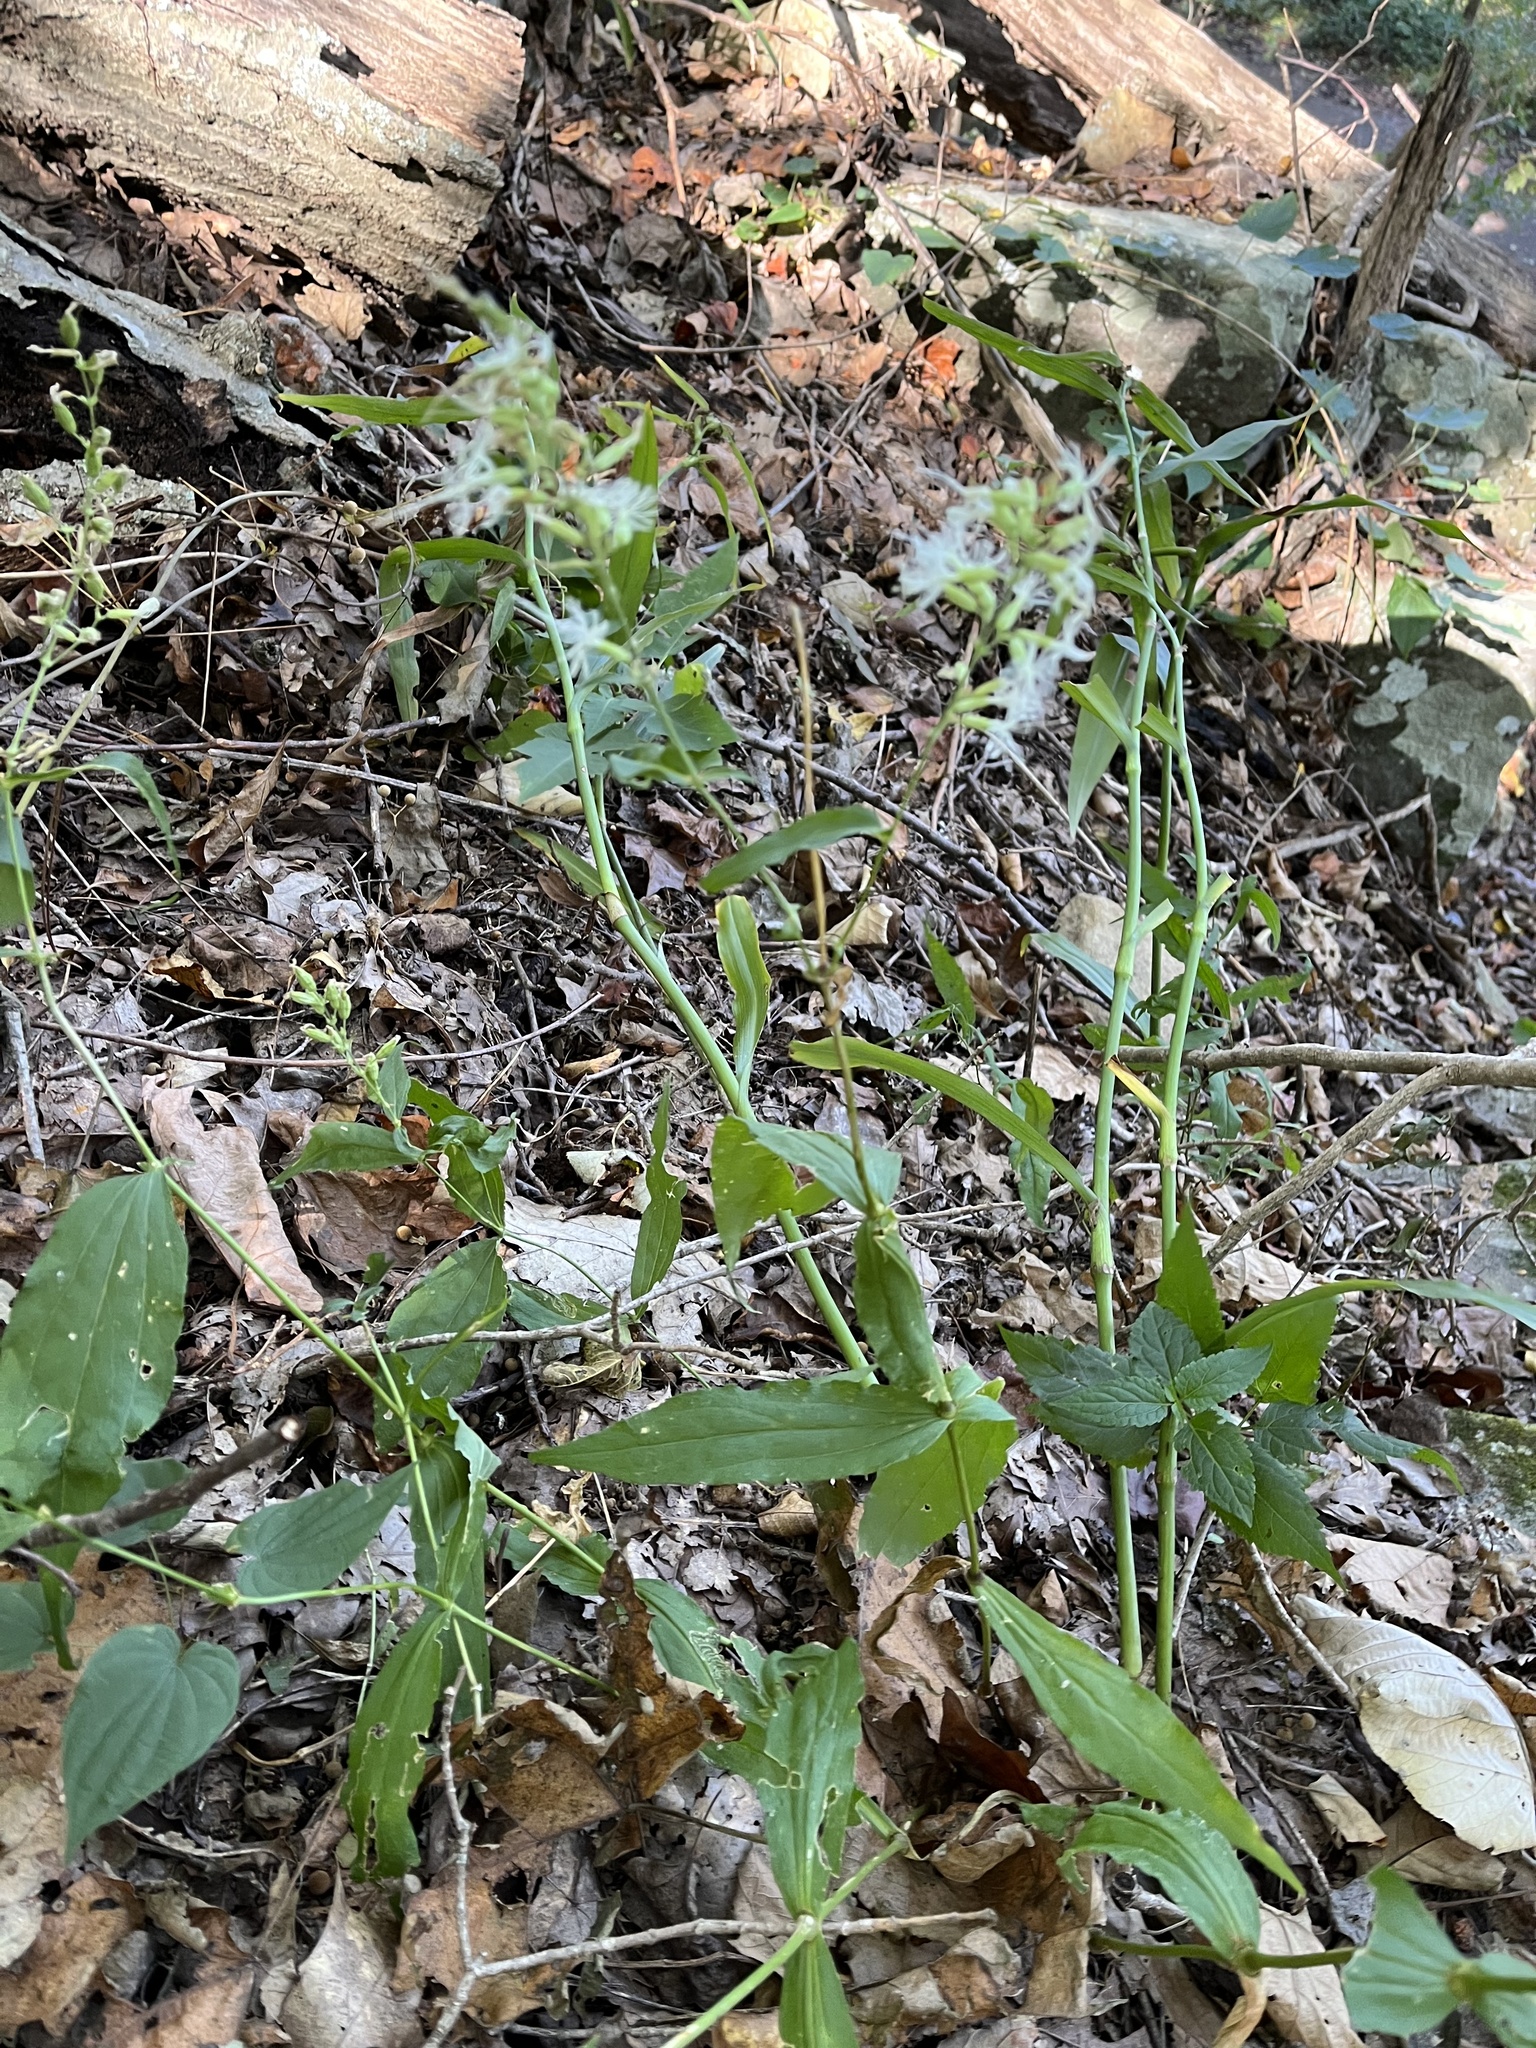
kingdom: Plantae
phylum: Tracheophyta
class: Magnoliopsida
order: Caryophyllales
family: Caryophyllaceae
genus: Silene
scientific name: Silene ovata
